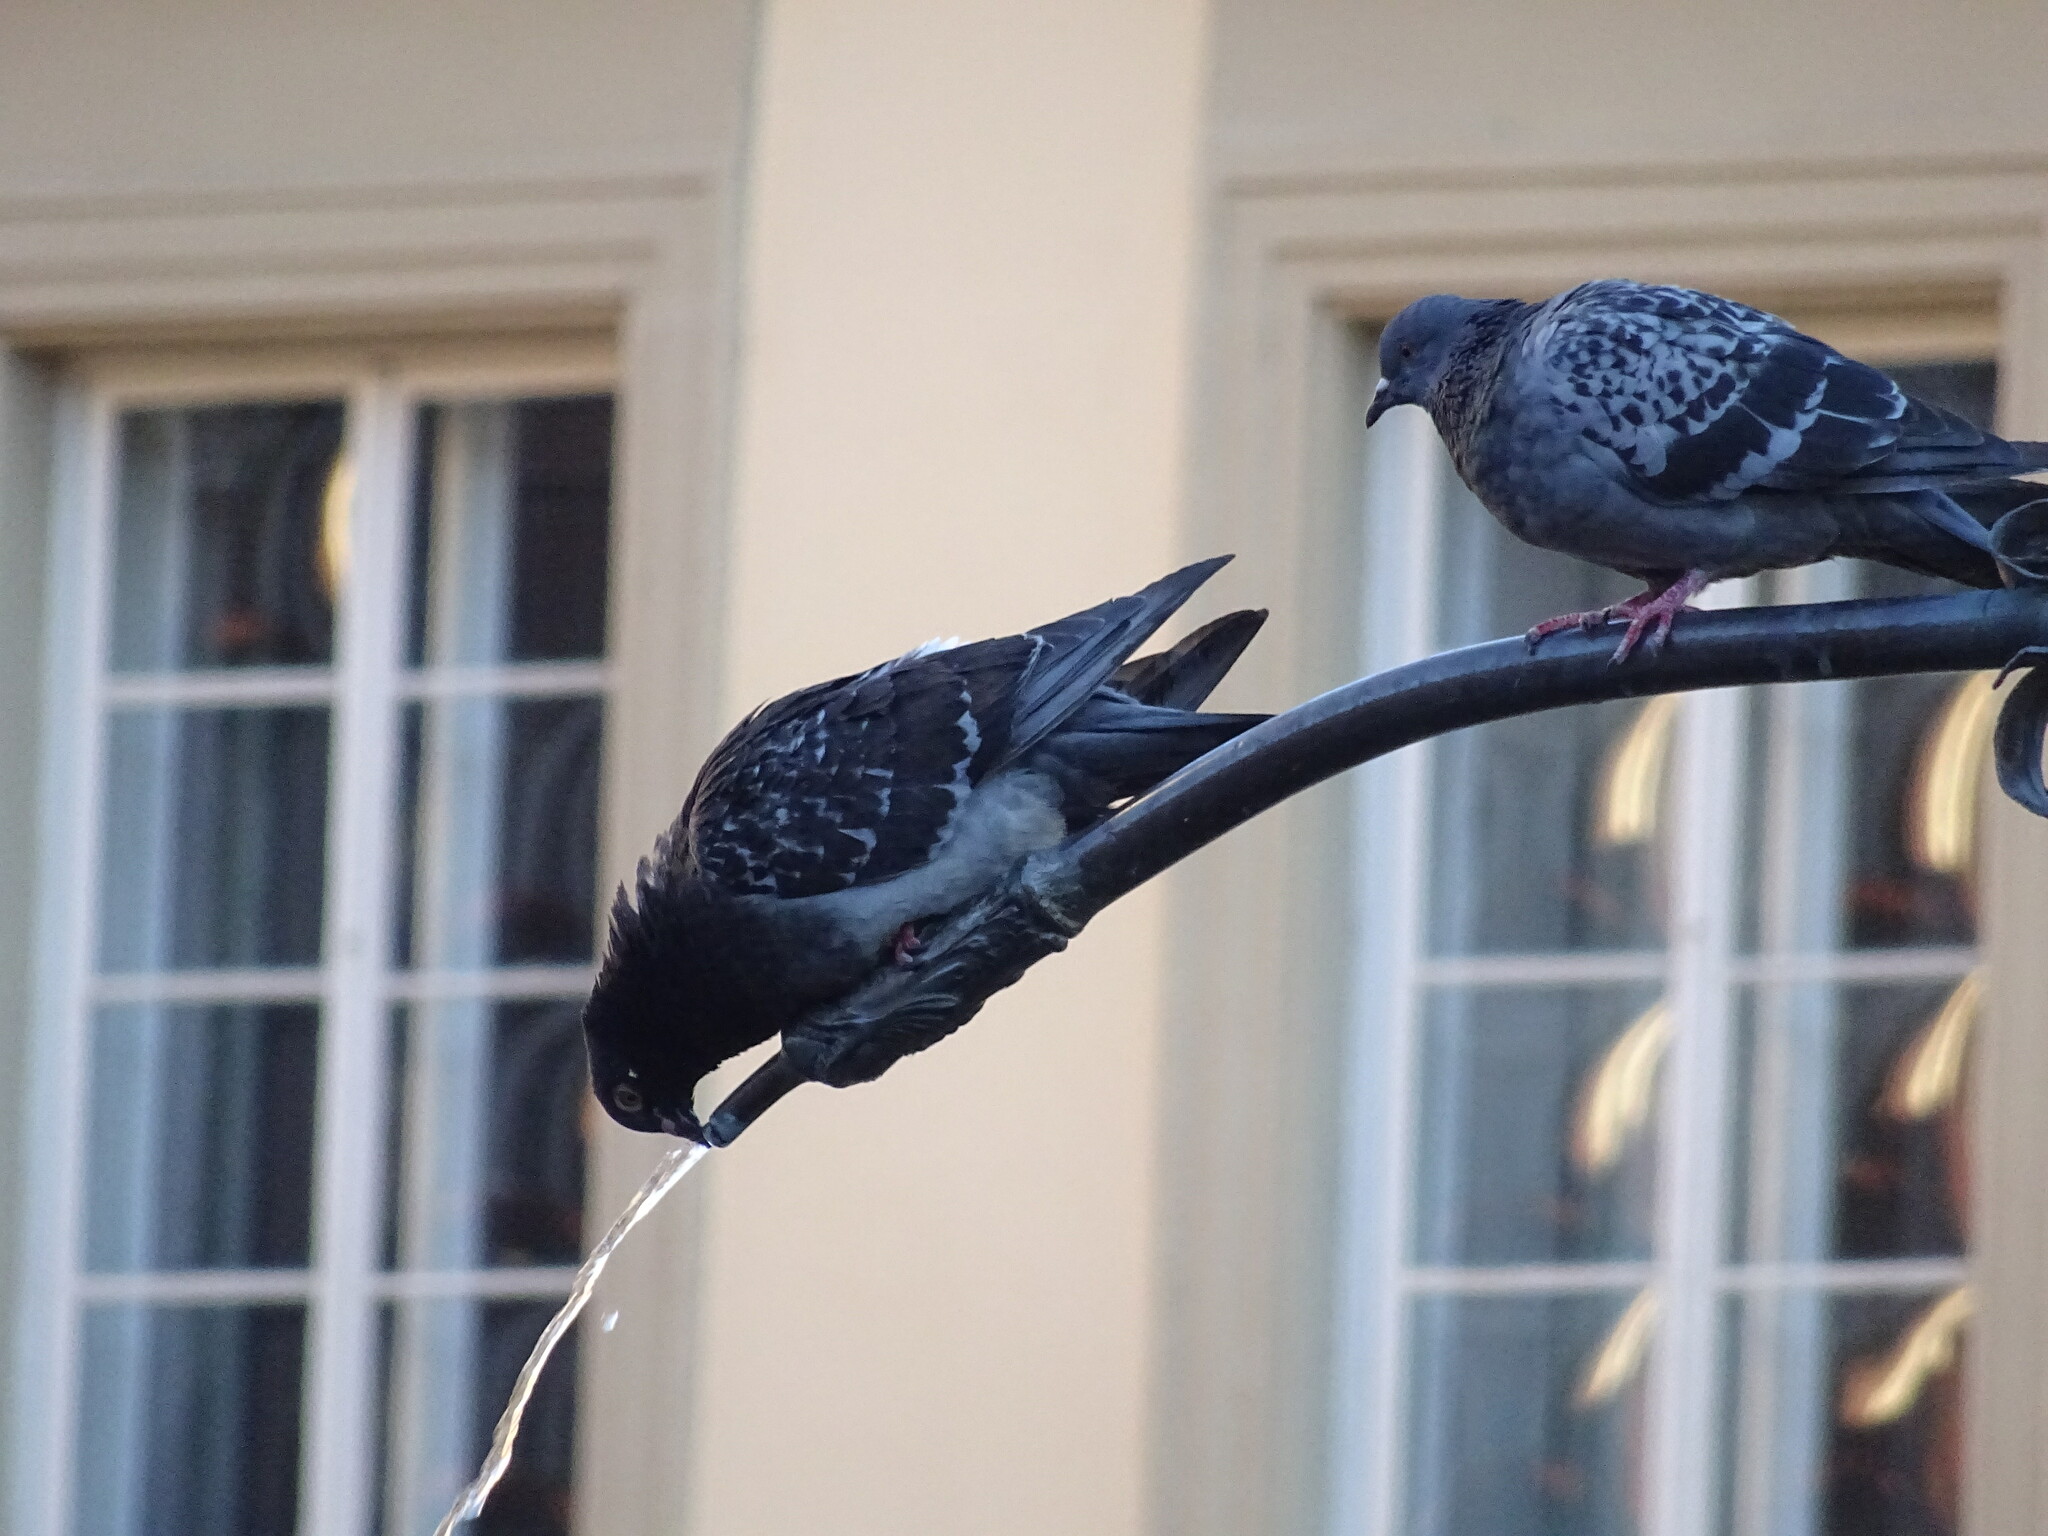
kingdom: Animalia
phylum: Chordata
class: Aves
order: Columbiformes
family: Columbidae
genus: Columba
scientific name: Columba livia
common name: Rock pigeon
